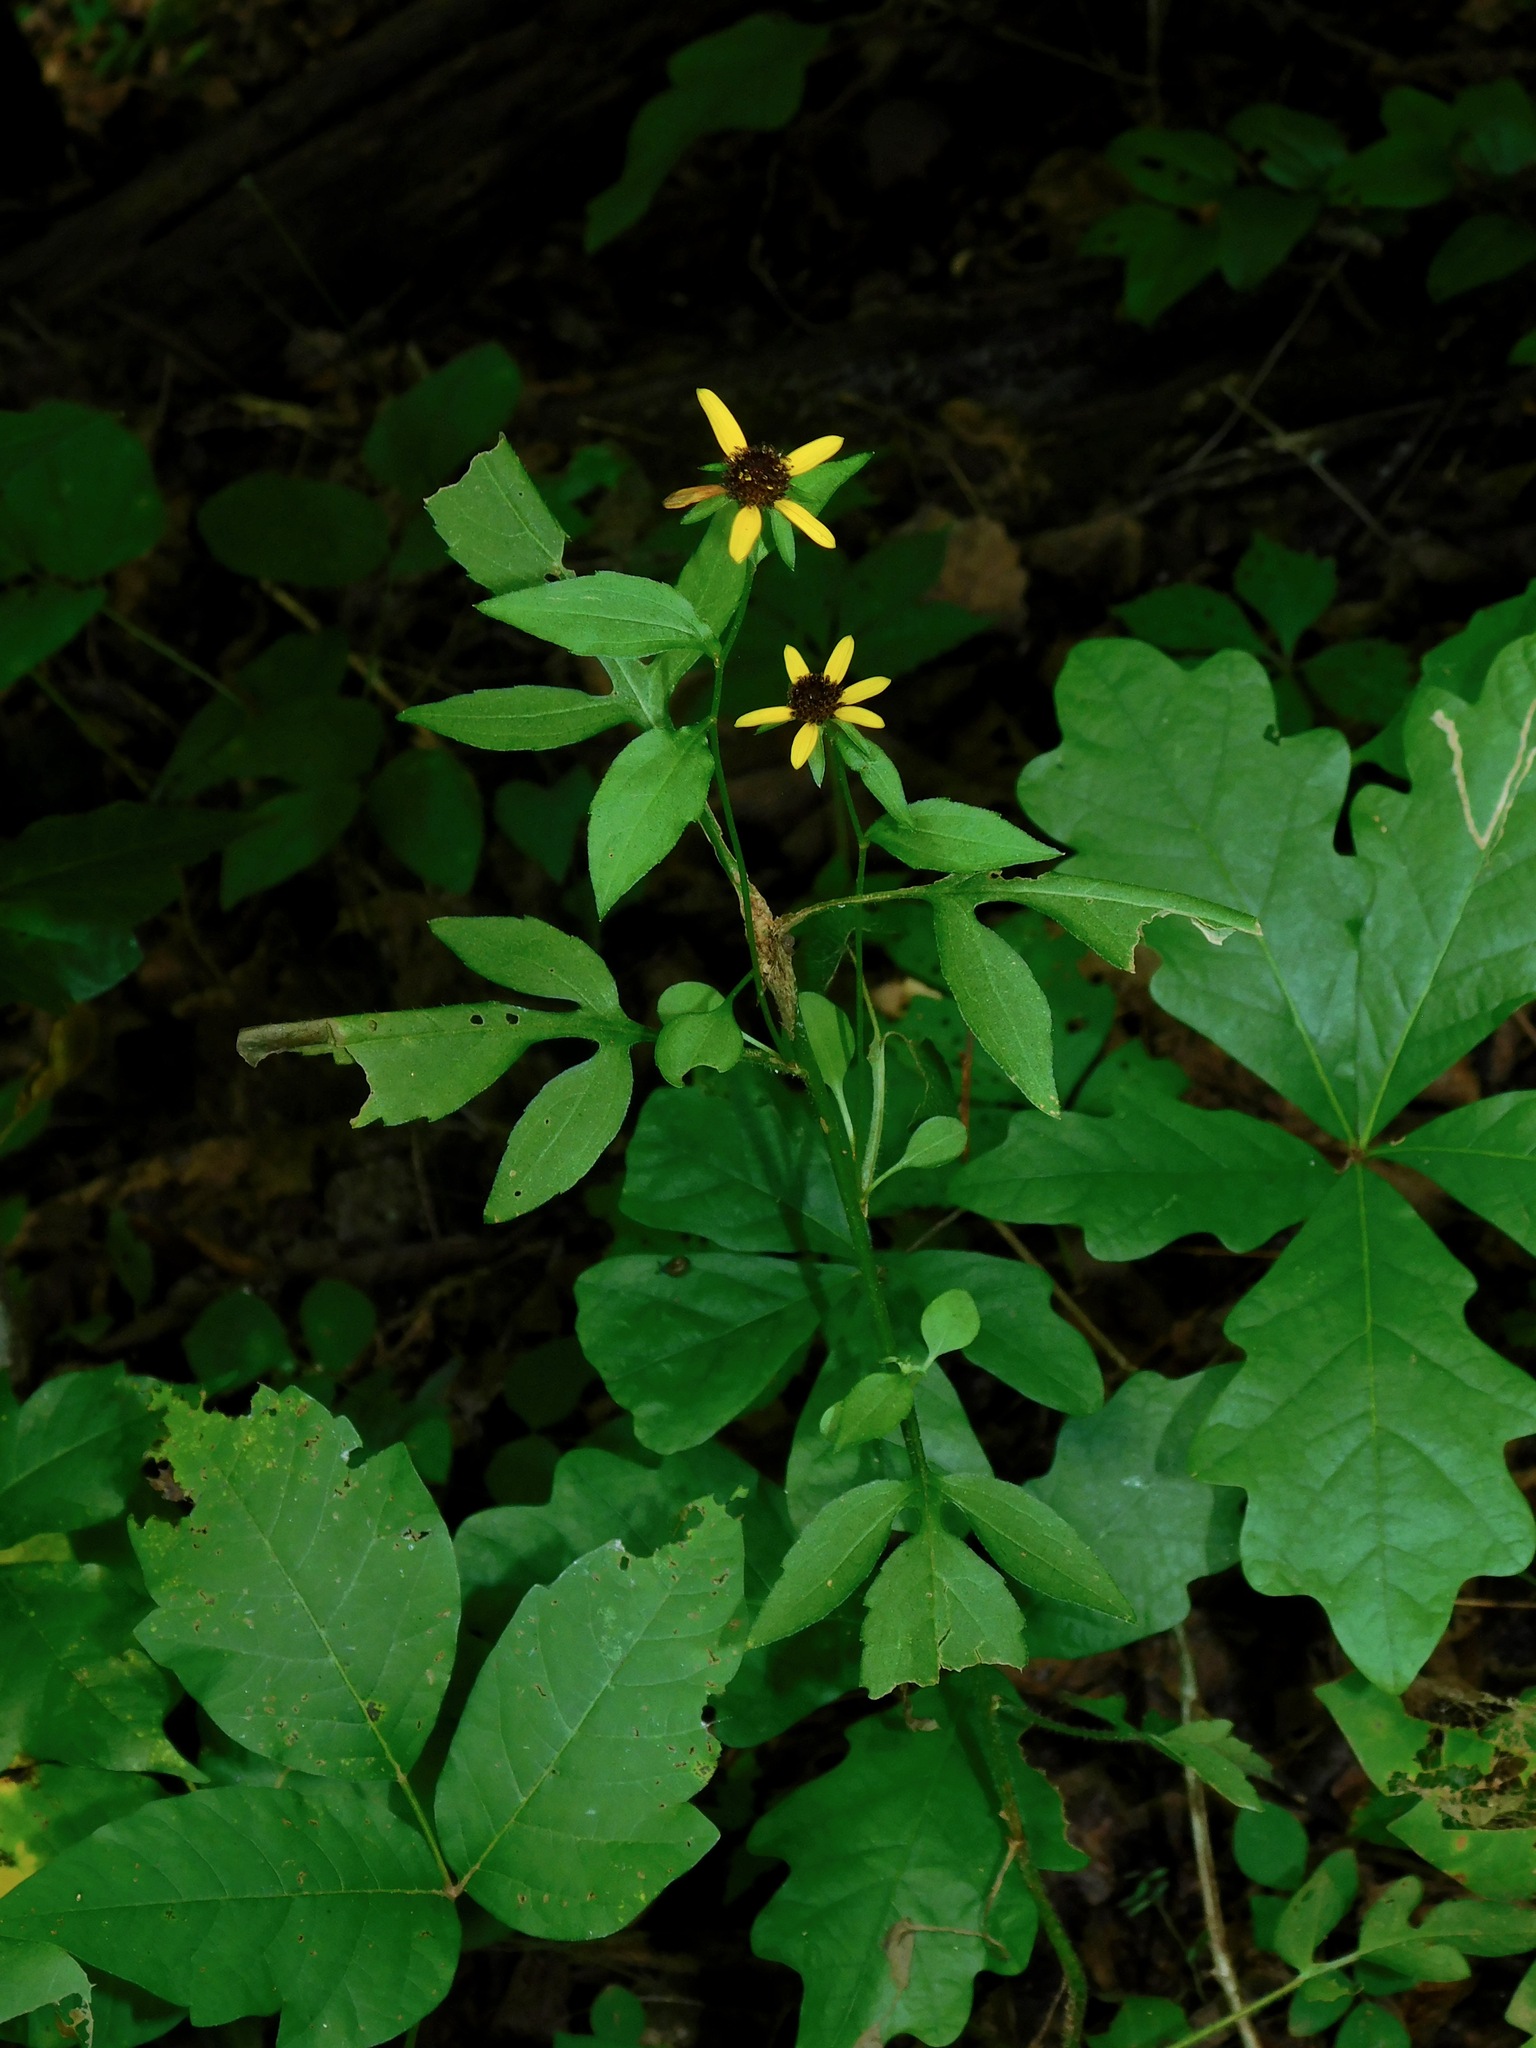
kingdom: Plantae
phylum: Tracheophyta
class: Magnoliopsida
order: Asterales
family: Asteraceae
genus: Rudbeckia
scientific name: Rudbeckia triloba
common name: Thin-leaved coneflower
